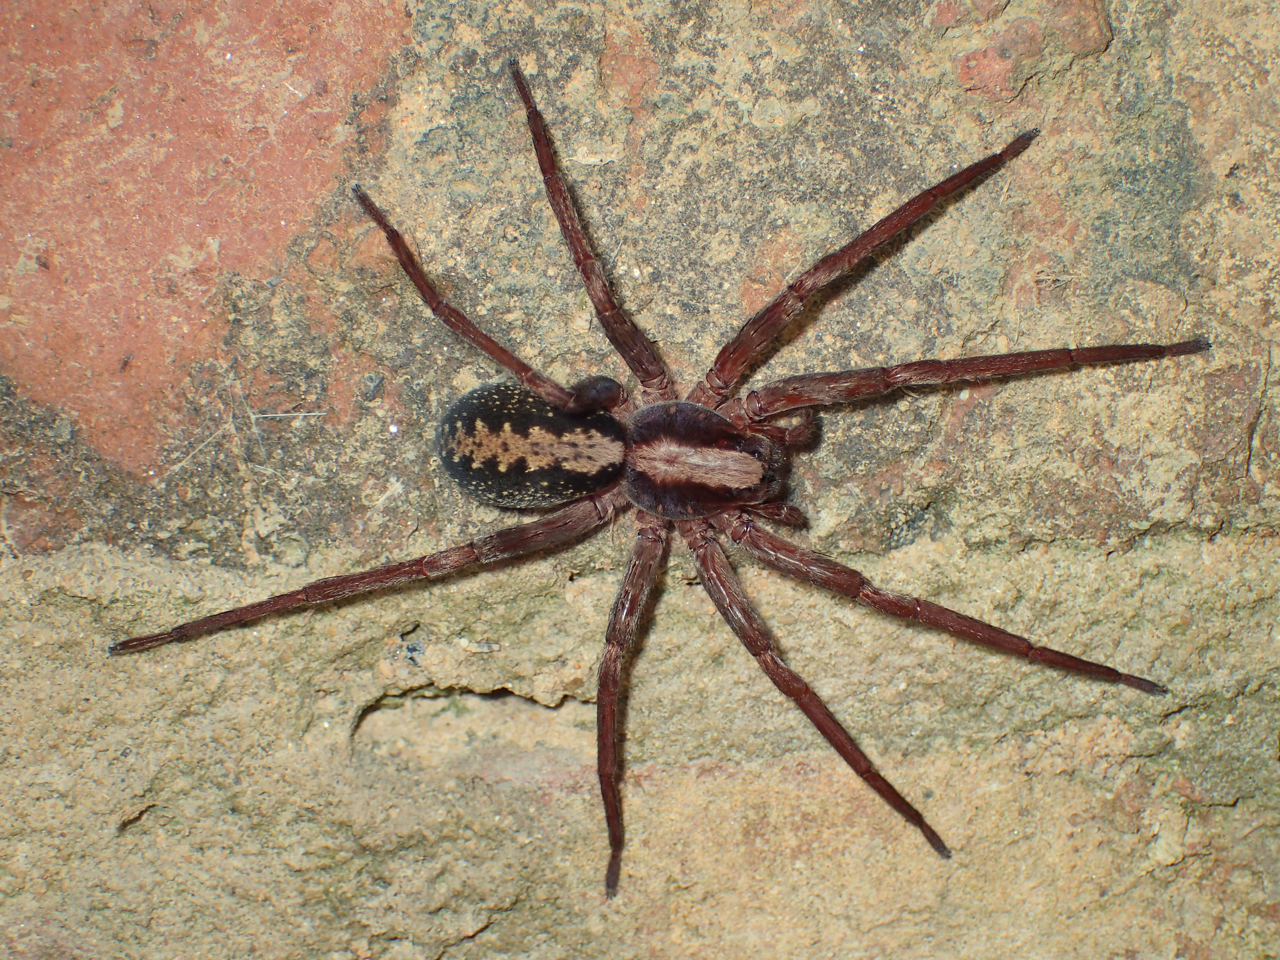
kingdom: Animalia
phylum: Arthropoda
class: Arachnida
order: Araneae
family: Ctenidae
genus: Ctenus
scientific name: Ctenus hibernalis
